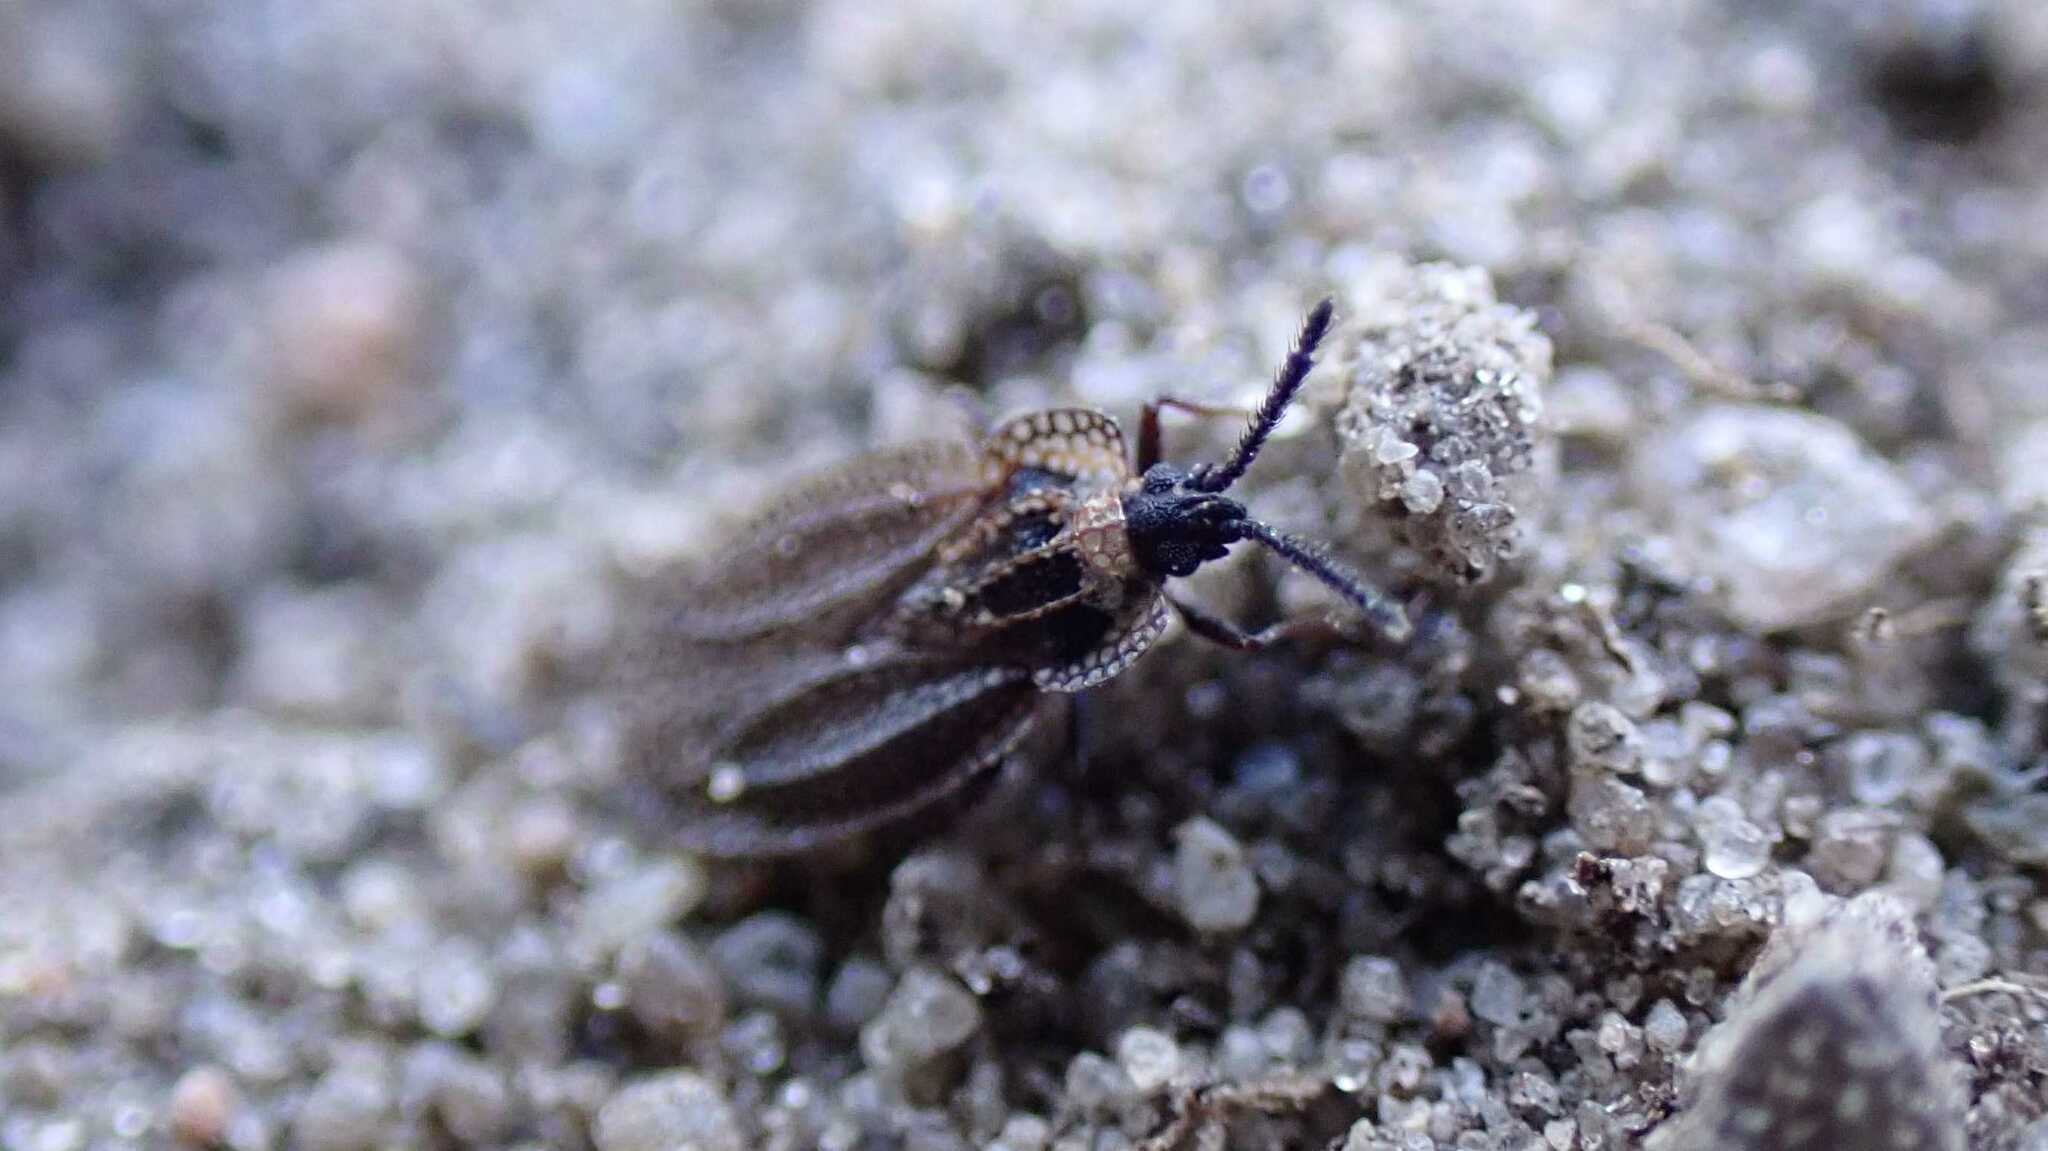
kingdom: Animalia
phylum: Arthropoda
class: Insecta
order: Hemiptera
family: Tingidae
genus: Dictyonota
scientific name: Dictyonota tricornis
